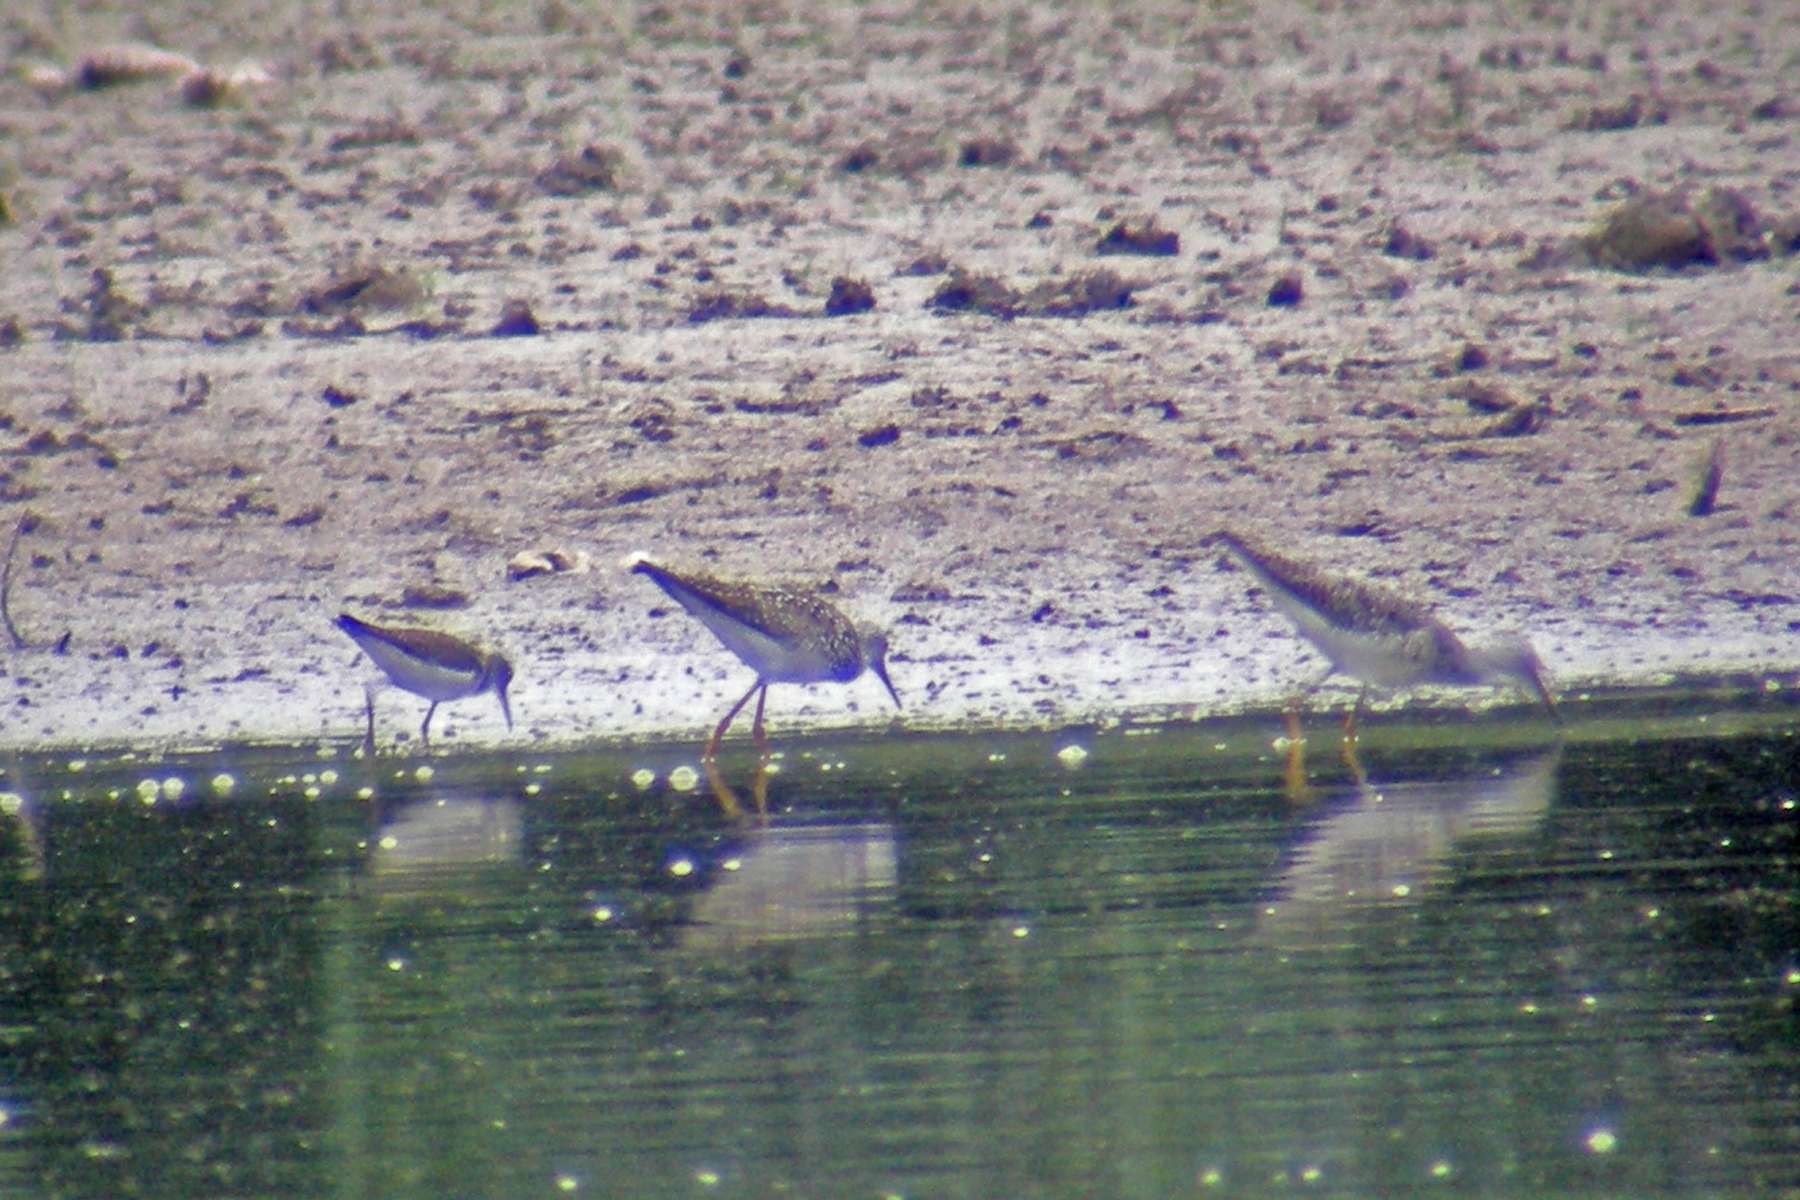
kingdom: Animalia
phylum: Chordata
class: Aves
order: Charadriiformes
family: Scolopacidae
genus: Tringa
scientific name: Tringa solitaria
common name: Solitary sandpiper
